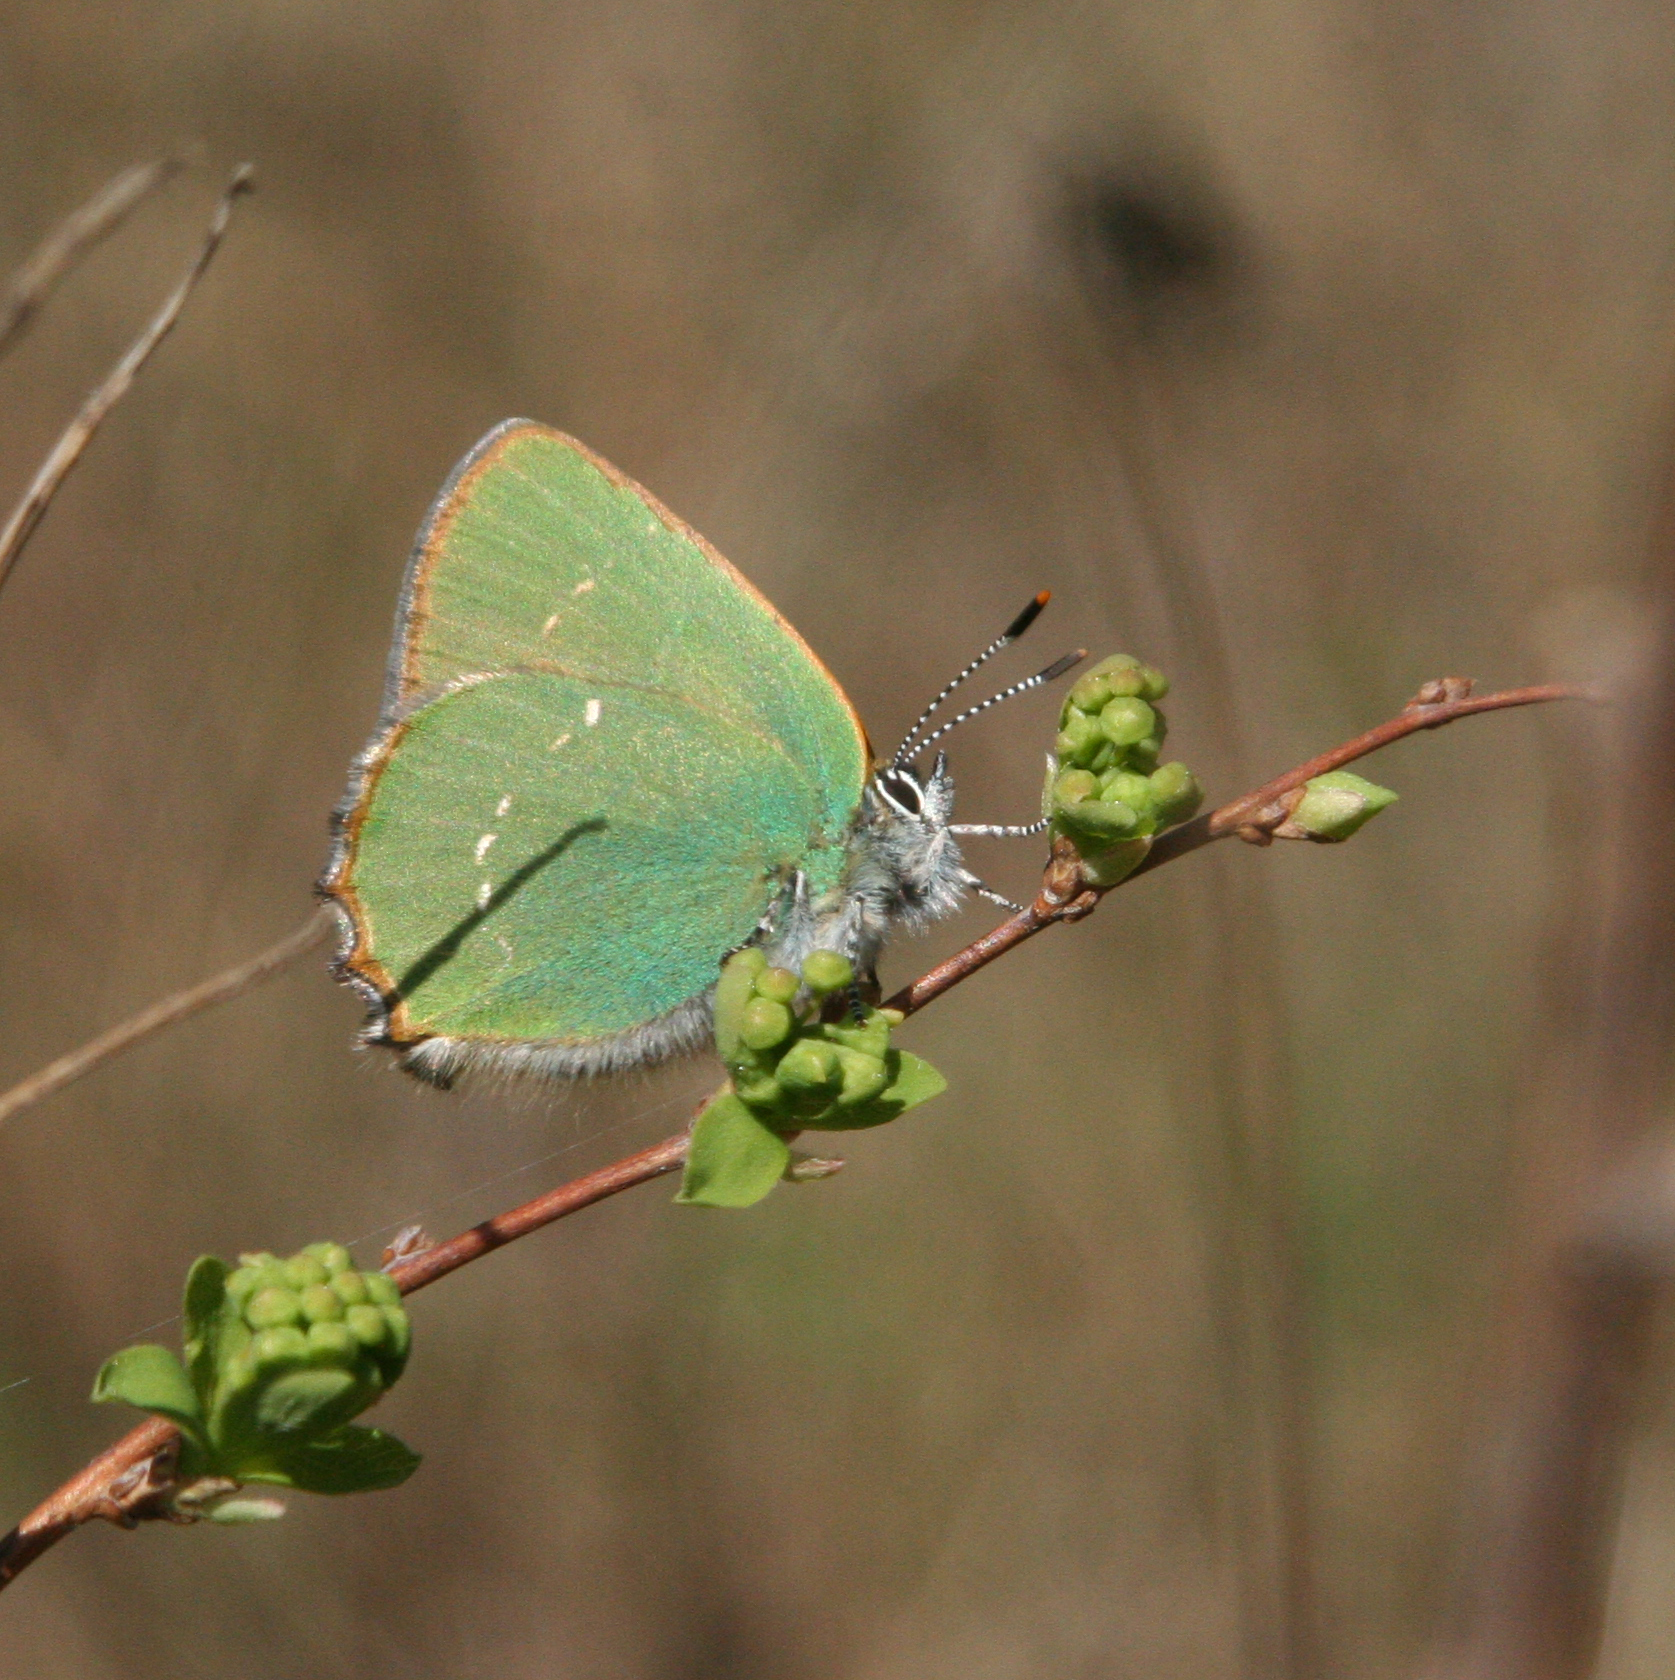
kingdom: Animalia
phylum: Arthropoda
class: Insecta
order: Lepidoptera
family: Lycaenidae
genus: Callophrys
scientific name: Callophrys rubi
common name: Green hairstreak
